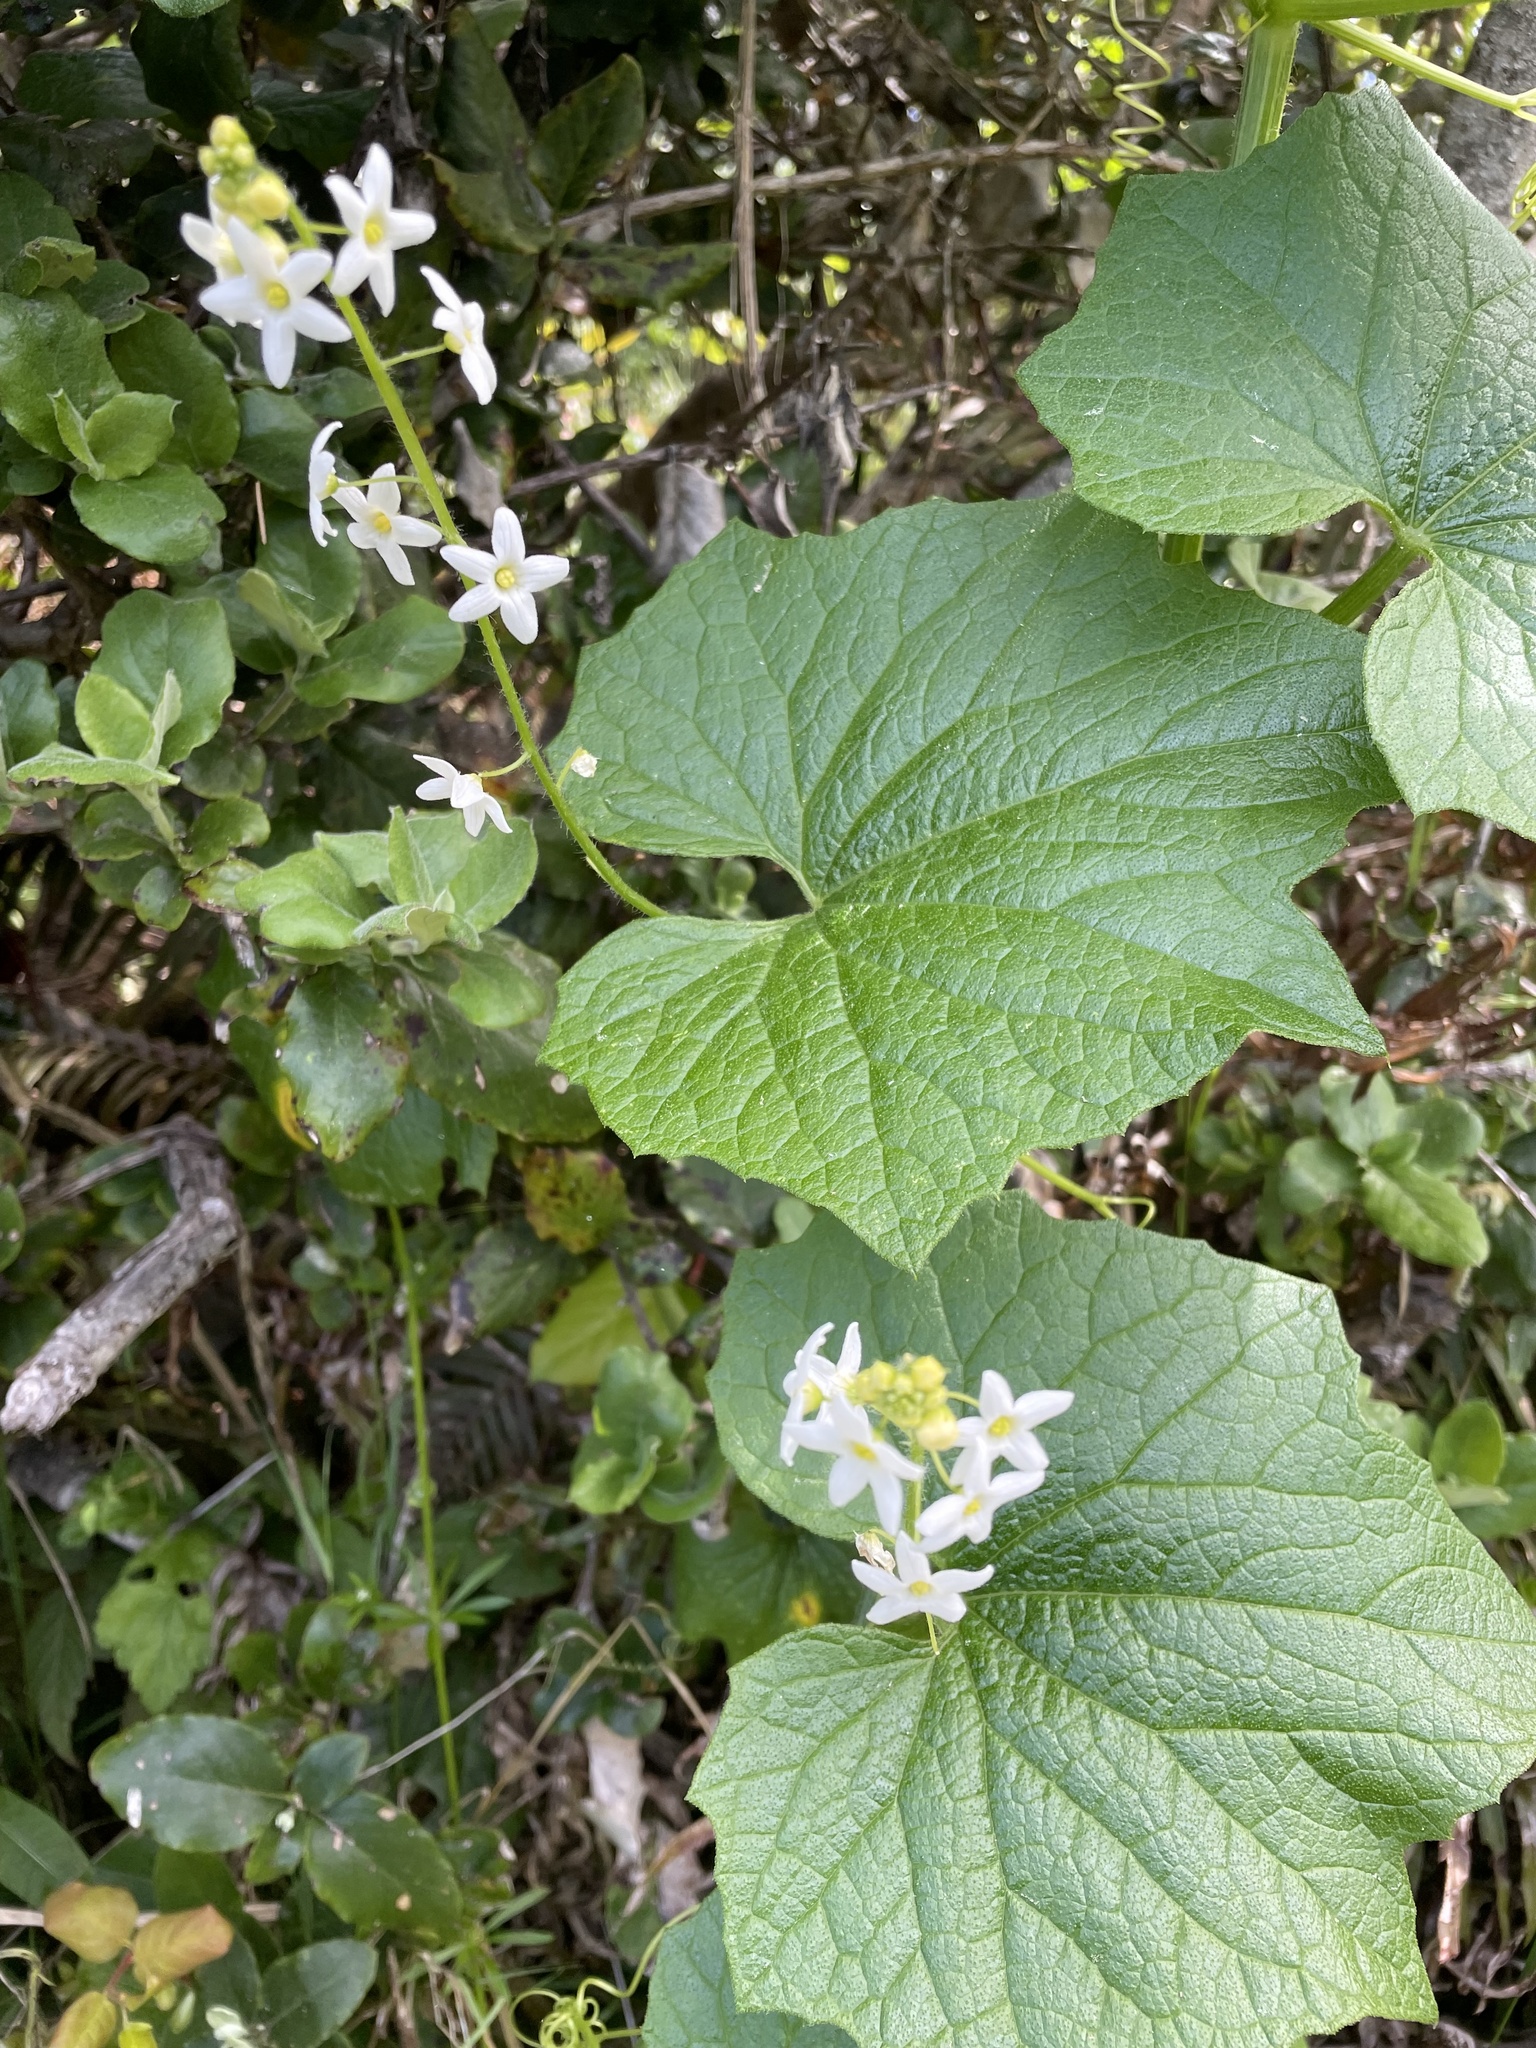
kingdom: Plantae
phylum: Tracheophyta
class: Magnoliopsida
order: Cucurbitales
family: Cucurbitaceae
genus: Marah
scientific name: Marah oregana
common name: Coastal manroot
